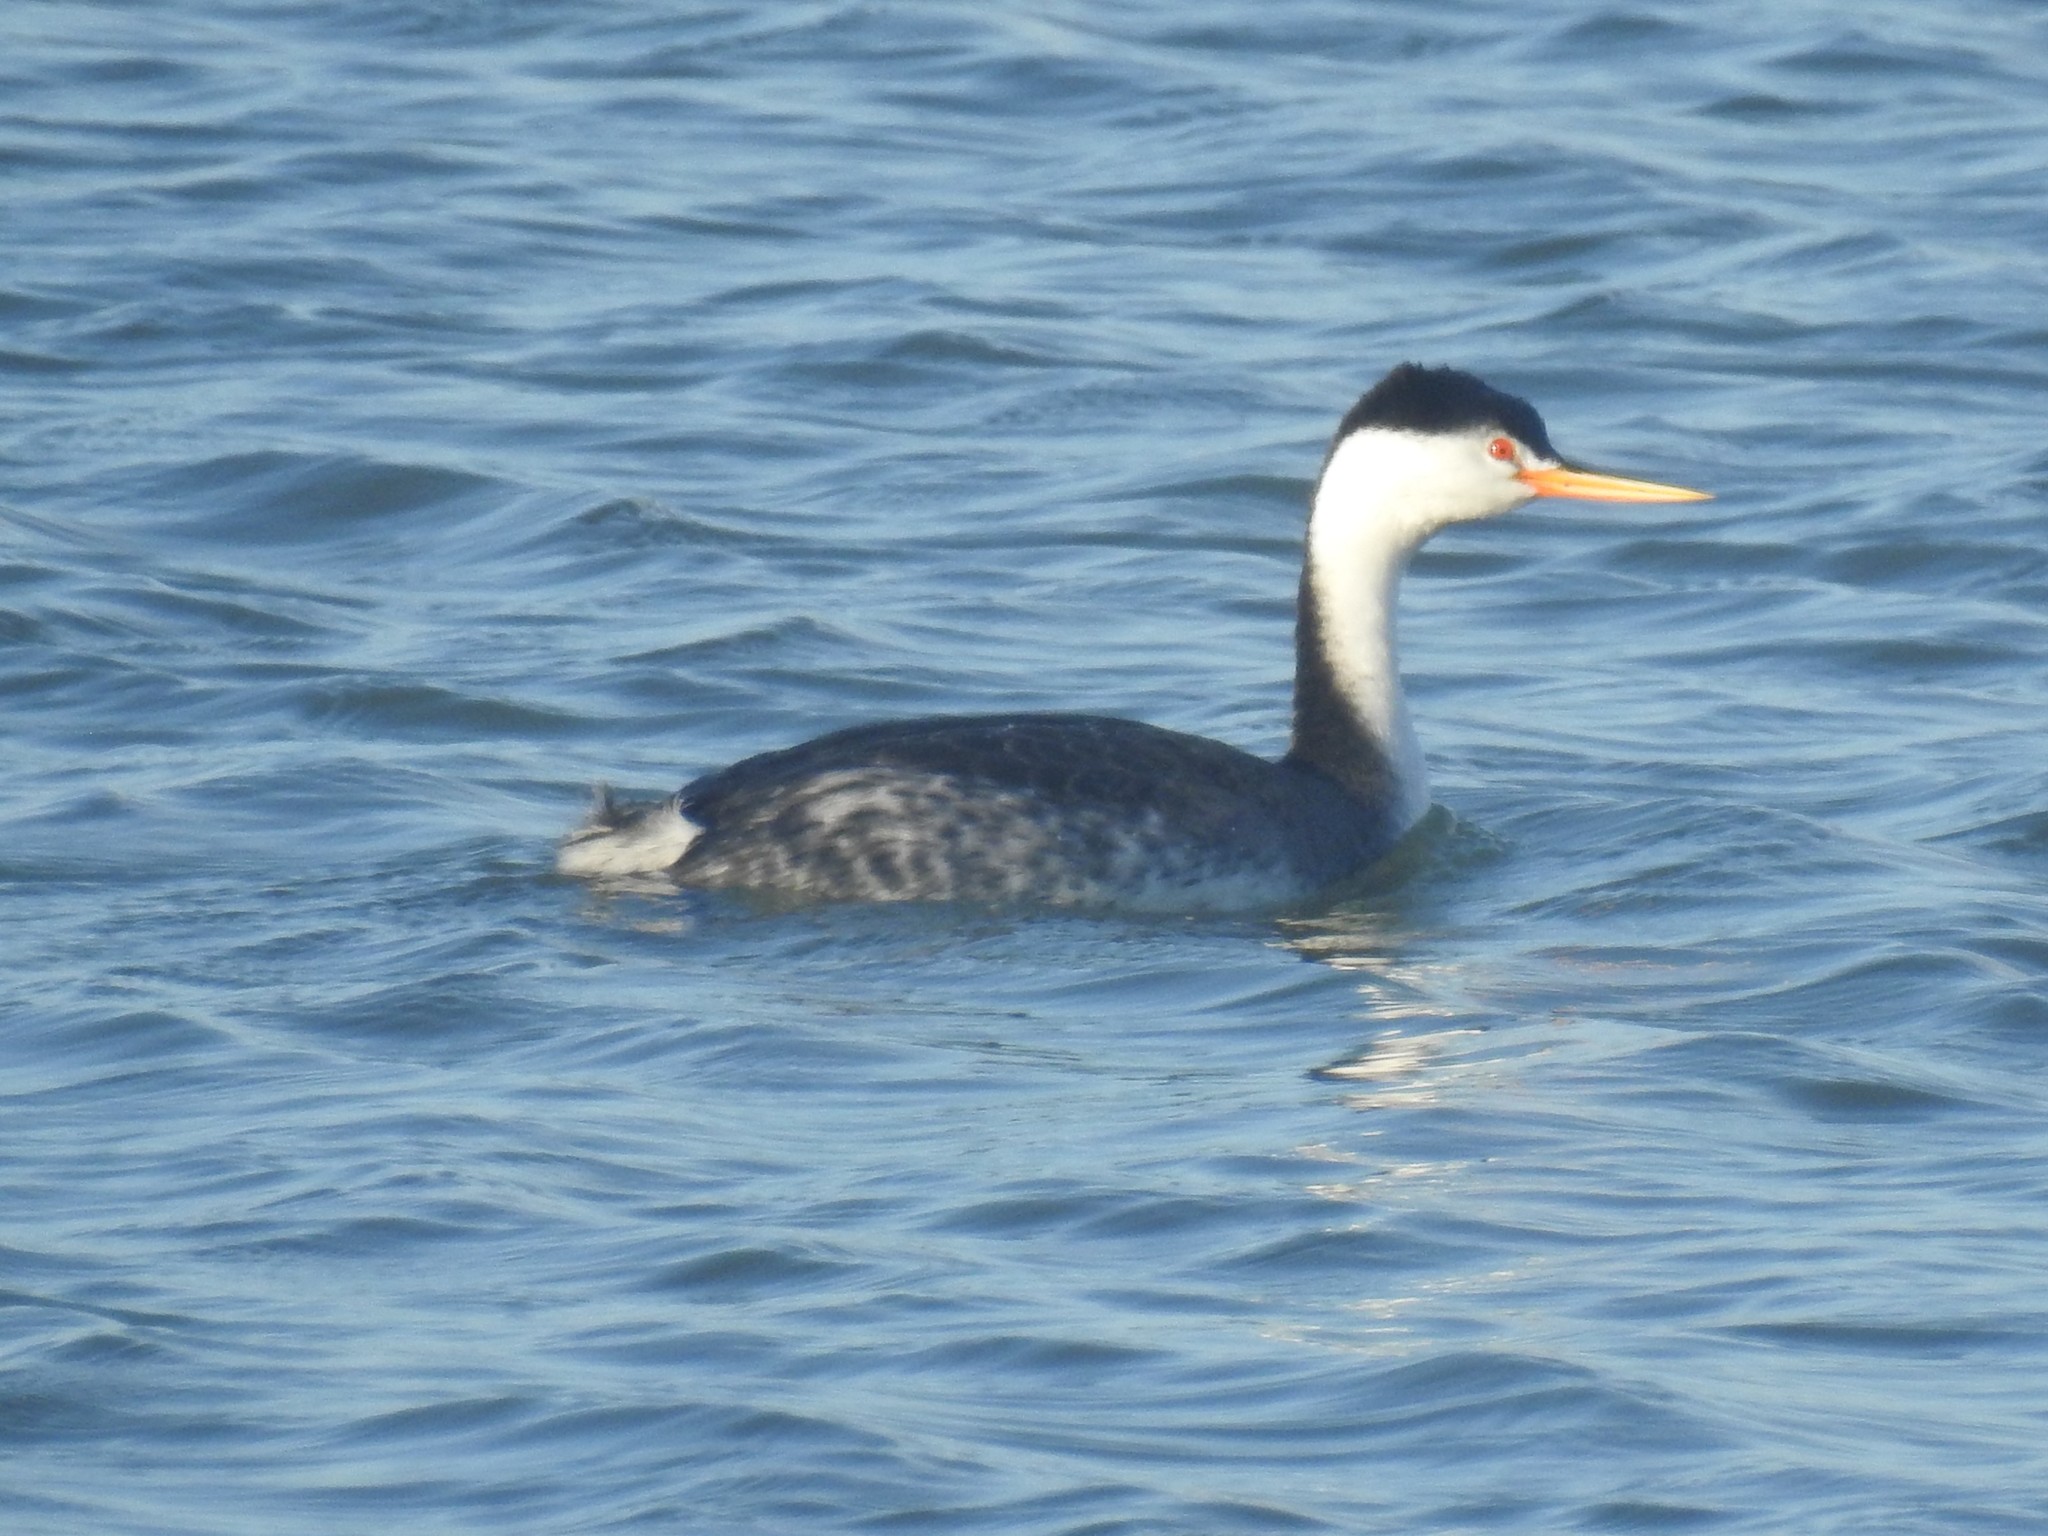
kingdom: Animalia
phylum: Chordata
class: Aves
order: Podicipediformes
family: Podicipedidae
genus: Aechmophorus
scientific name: Aechmophorus clarkii
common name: Clark's grebe
